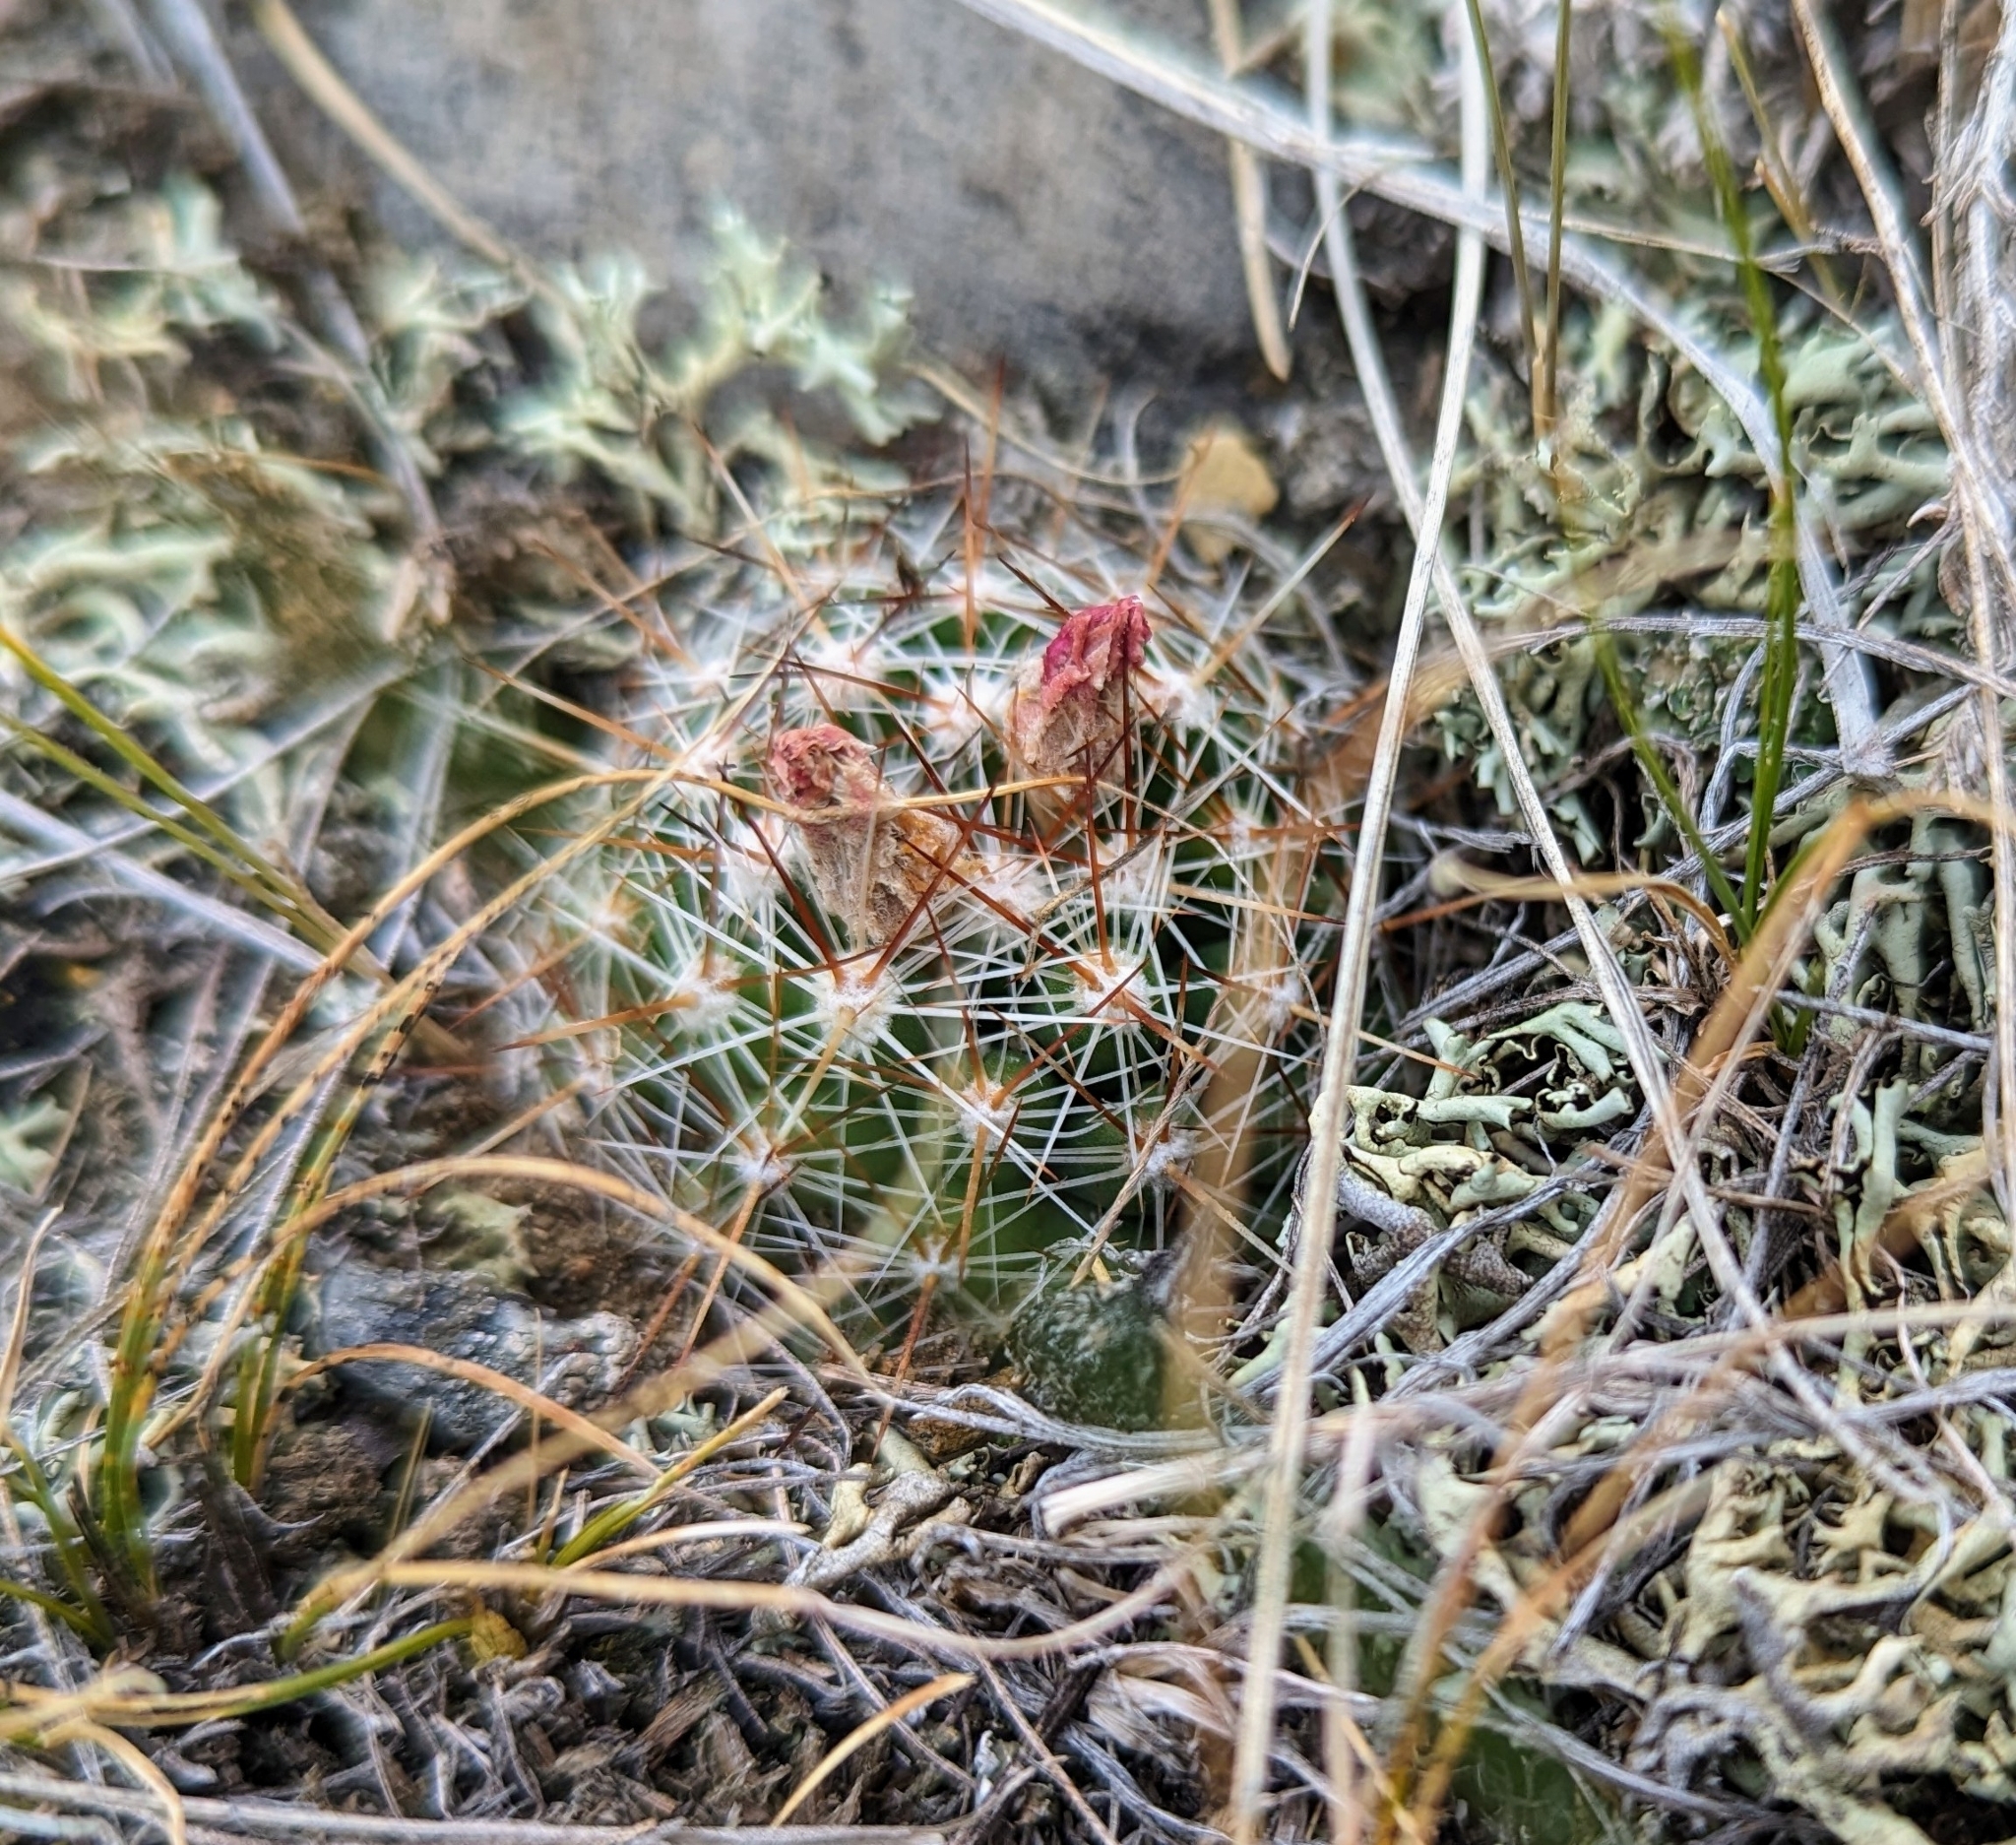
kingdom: Plantae
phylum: Tracheophyta
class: Magnoliopsida
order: Caryophyllales
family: Cactaceae
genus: Pelecyphora
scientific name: Pelecyphora vivipara
